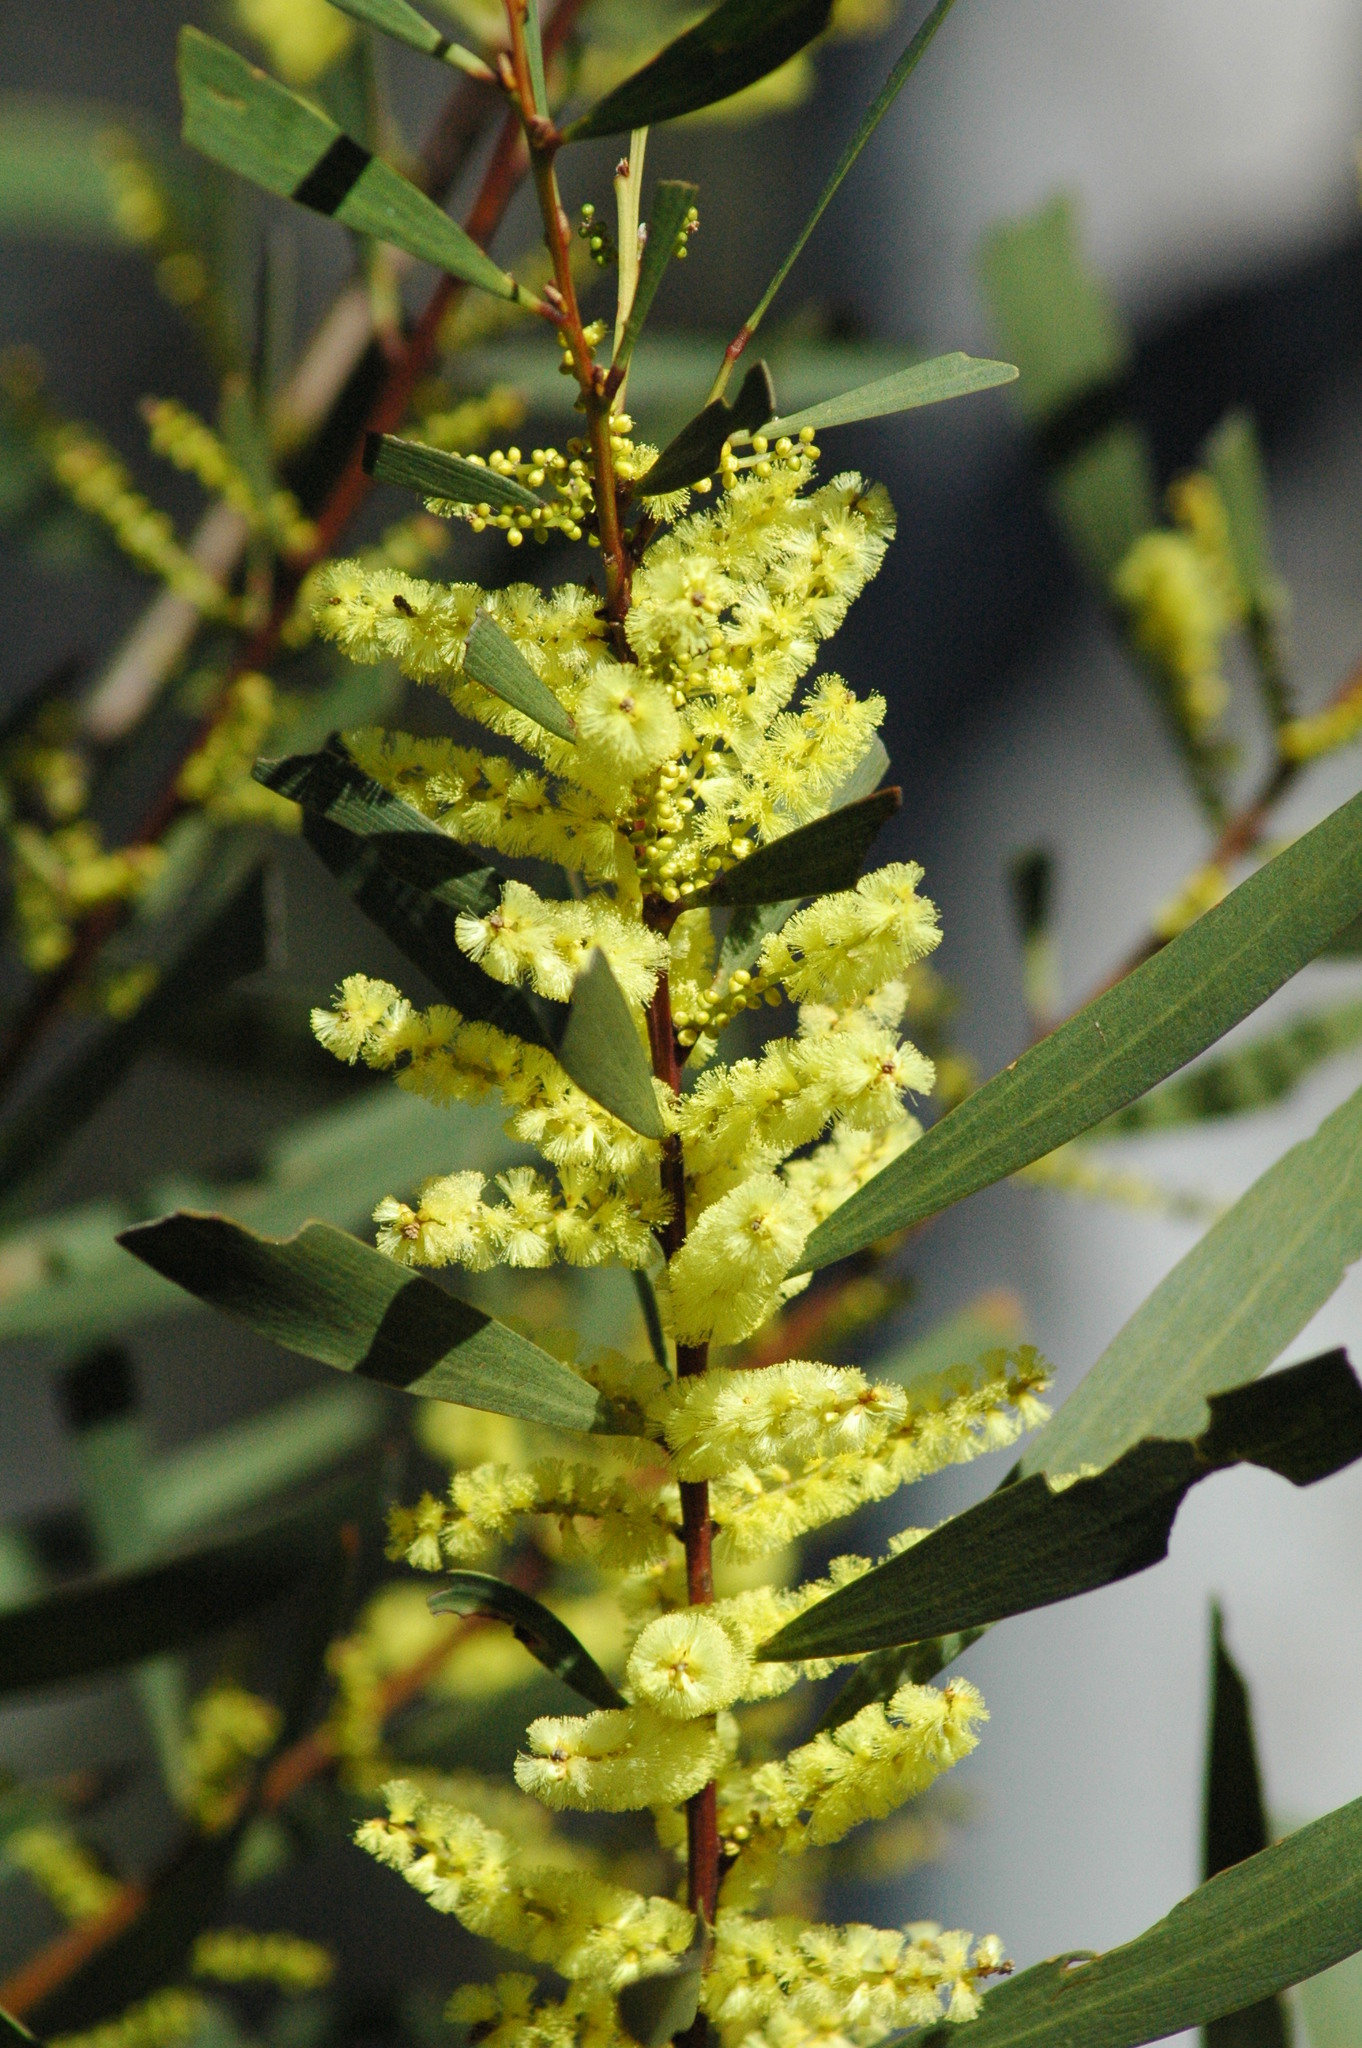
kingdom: Plantae
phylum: Tracheophyta
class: Magnoliopsida
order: Fabales
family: Fabaceae
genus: Acacia
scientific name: Acacia longifolia
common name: Sydney golden wattle
